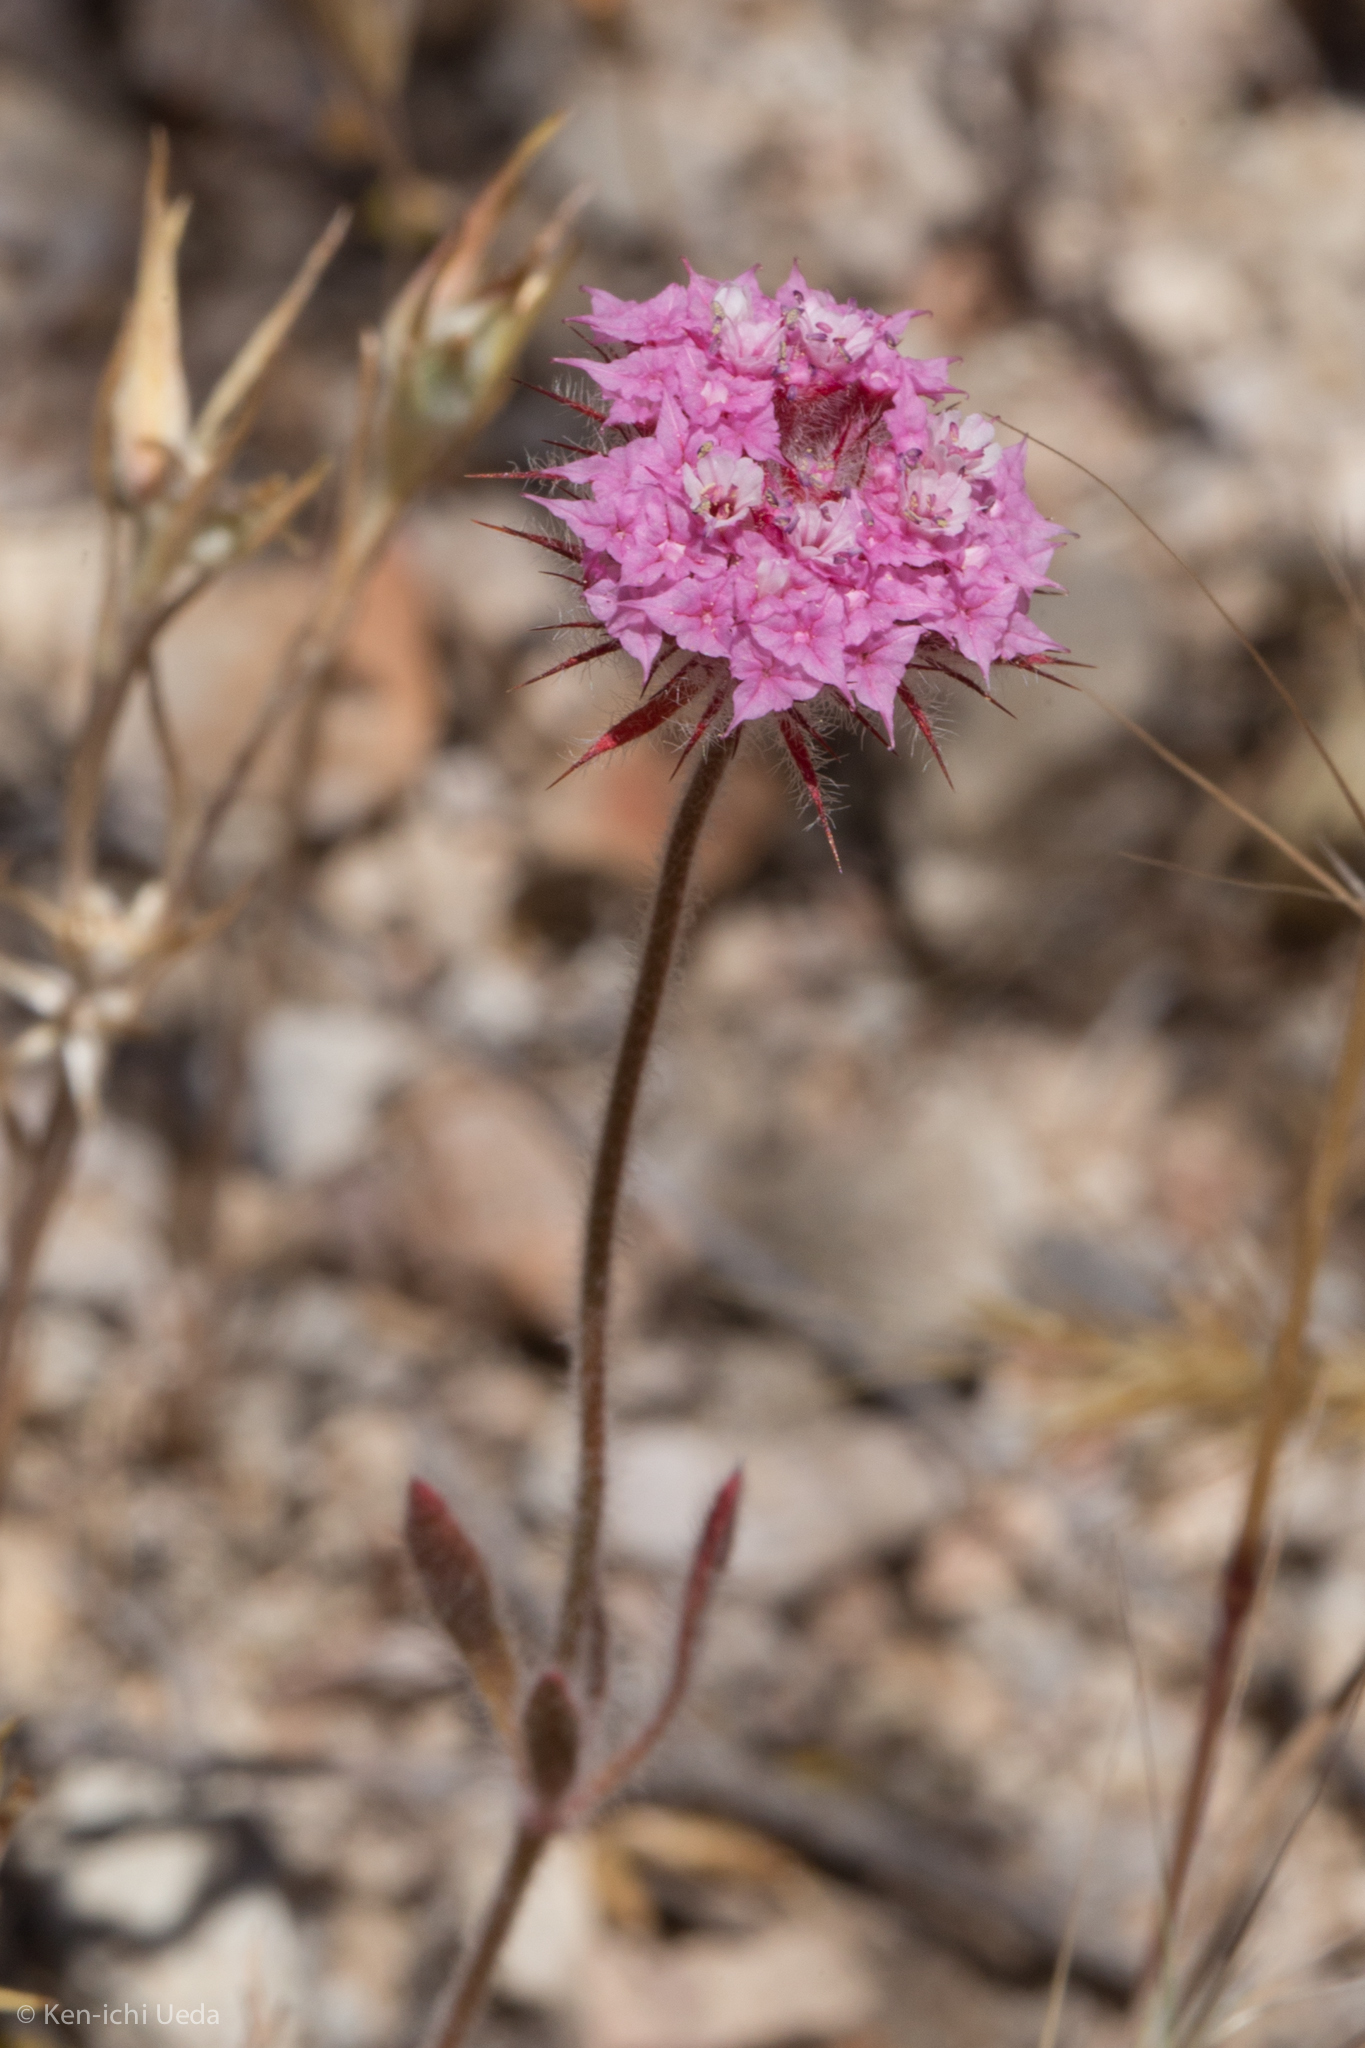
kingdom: Plantae
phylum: Tracheophyta
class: Magnoliopsida
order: Caryophyllales
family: Polygonaceae
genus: Chorizanthe
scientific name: Chorizanthe douglasii
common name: Douglas's spineflower
